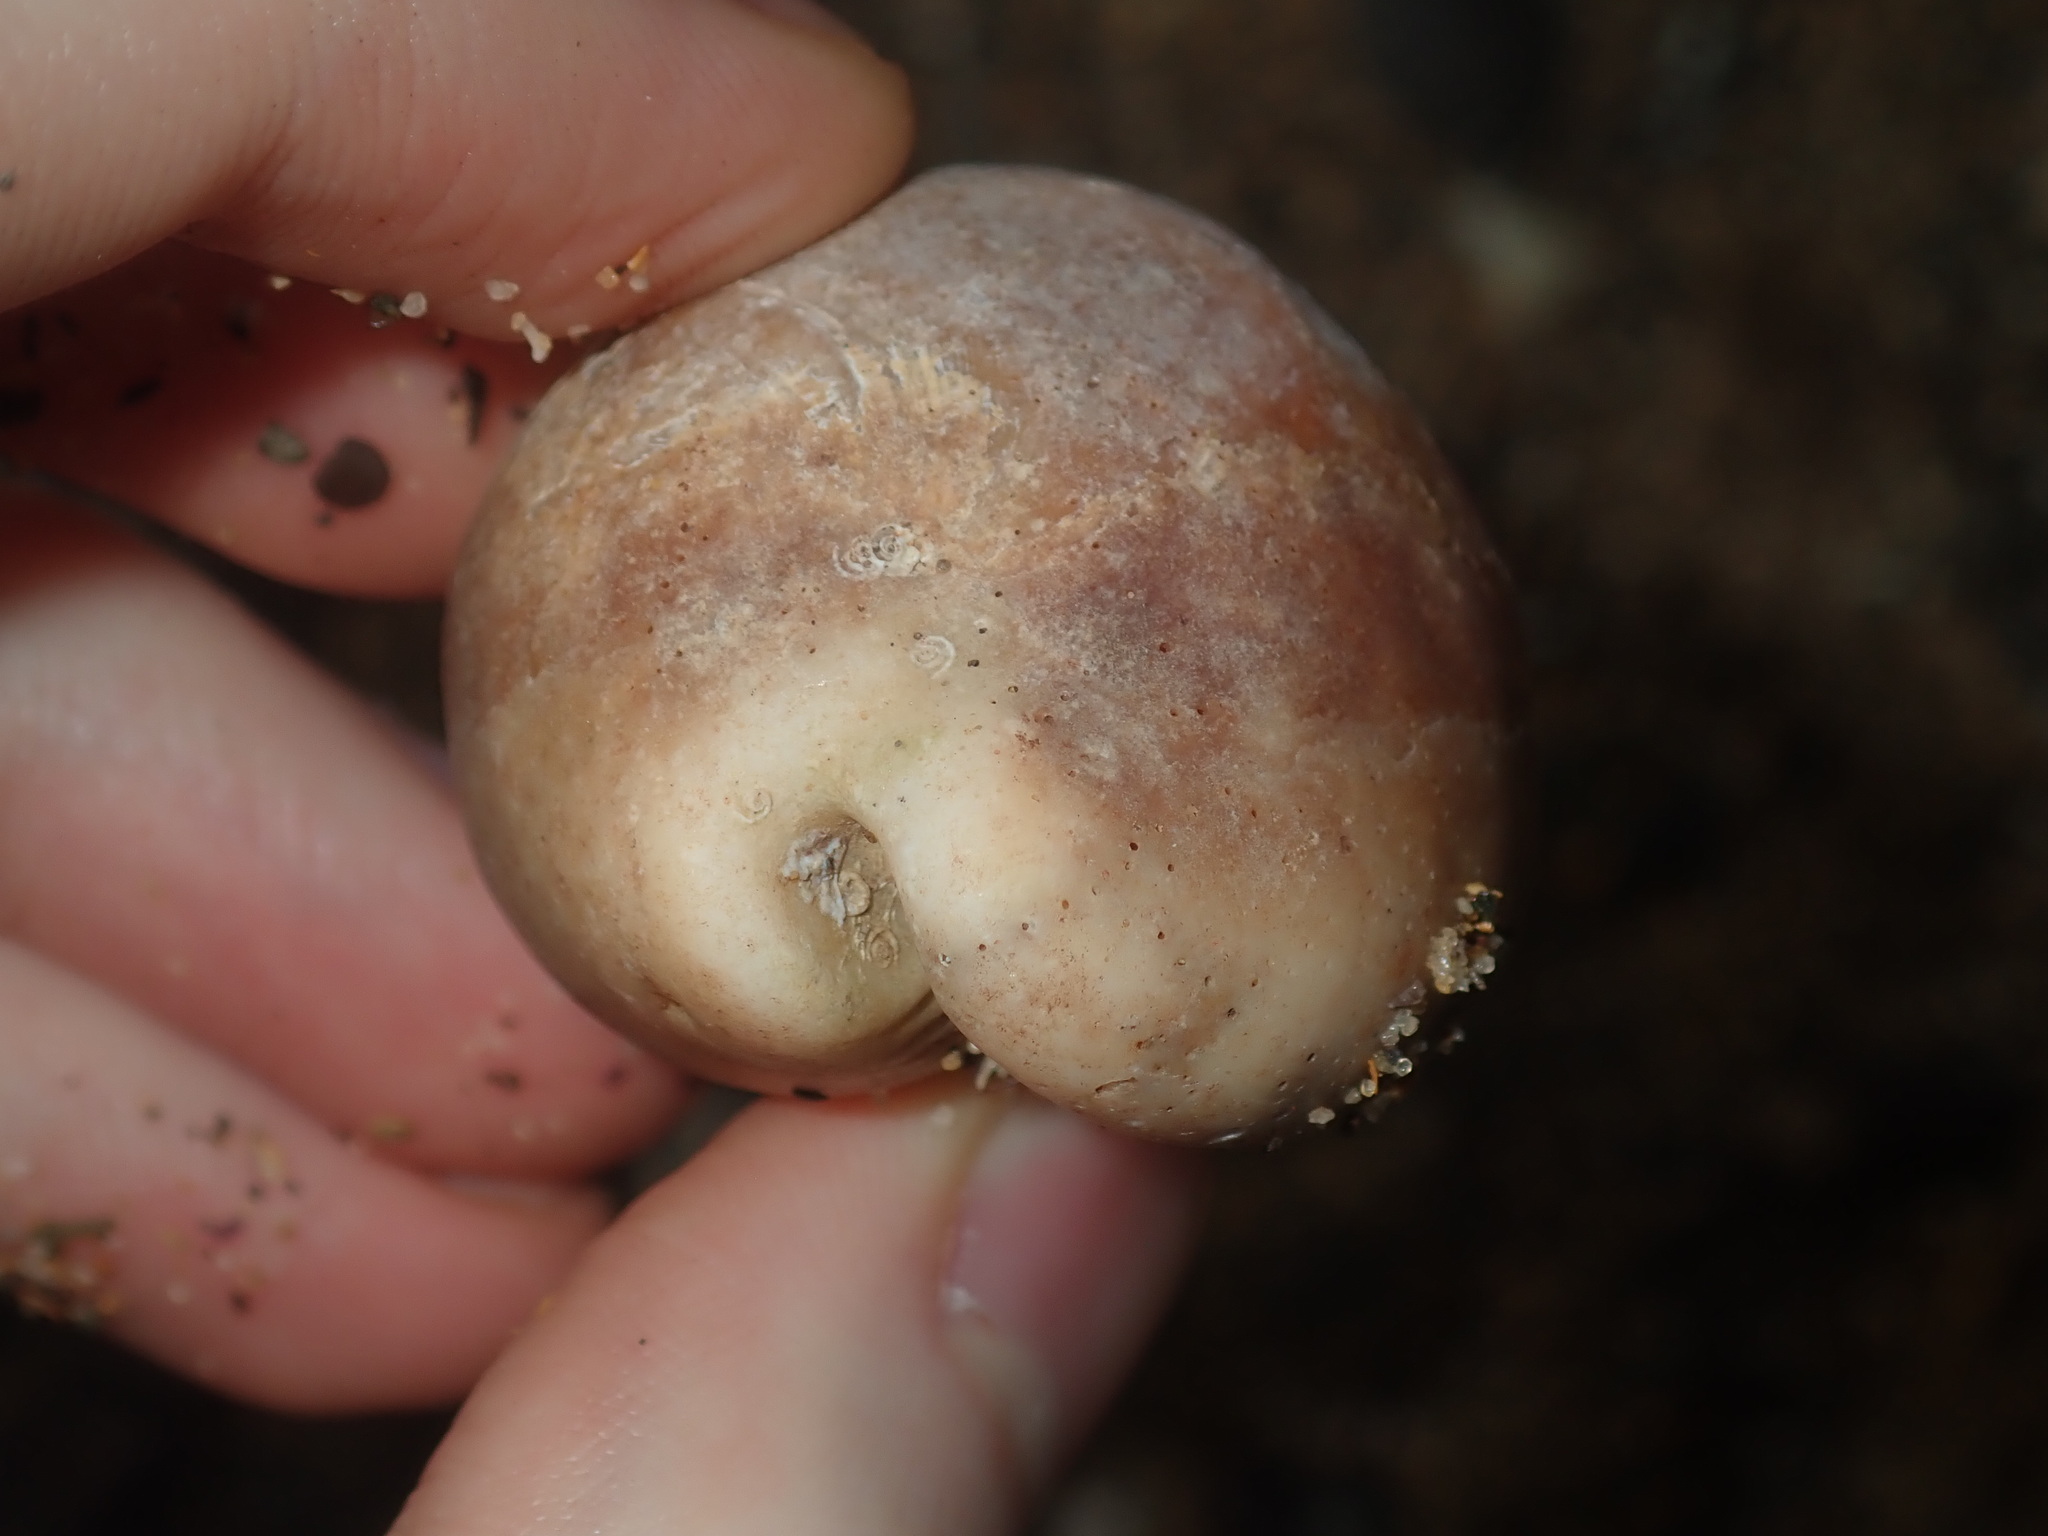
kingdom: Animalia
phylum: Mollusca
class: Gastropoda
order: Littorinimorpha
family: Cypraeidae
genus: Lyncina
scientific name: Lyncina vitellus
